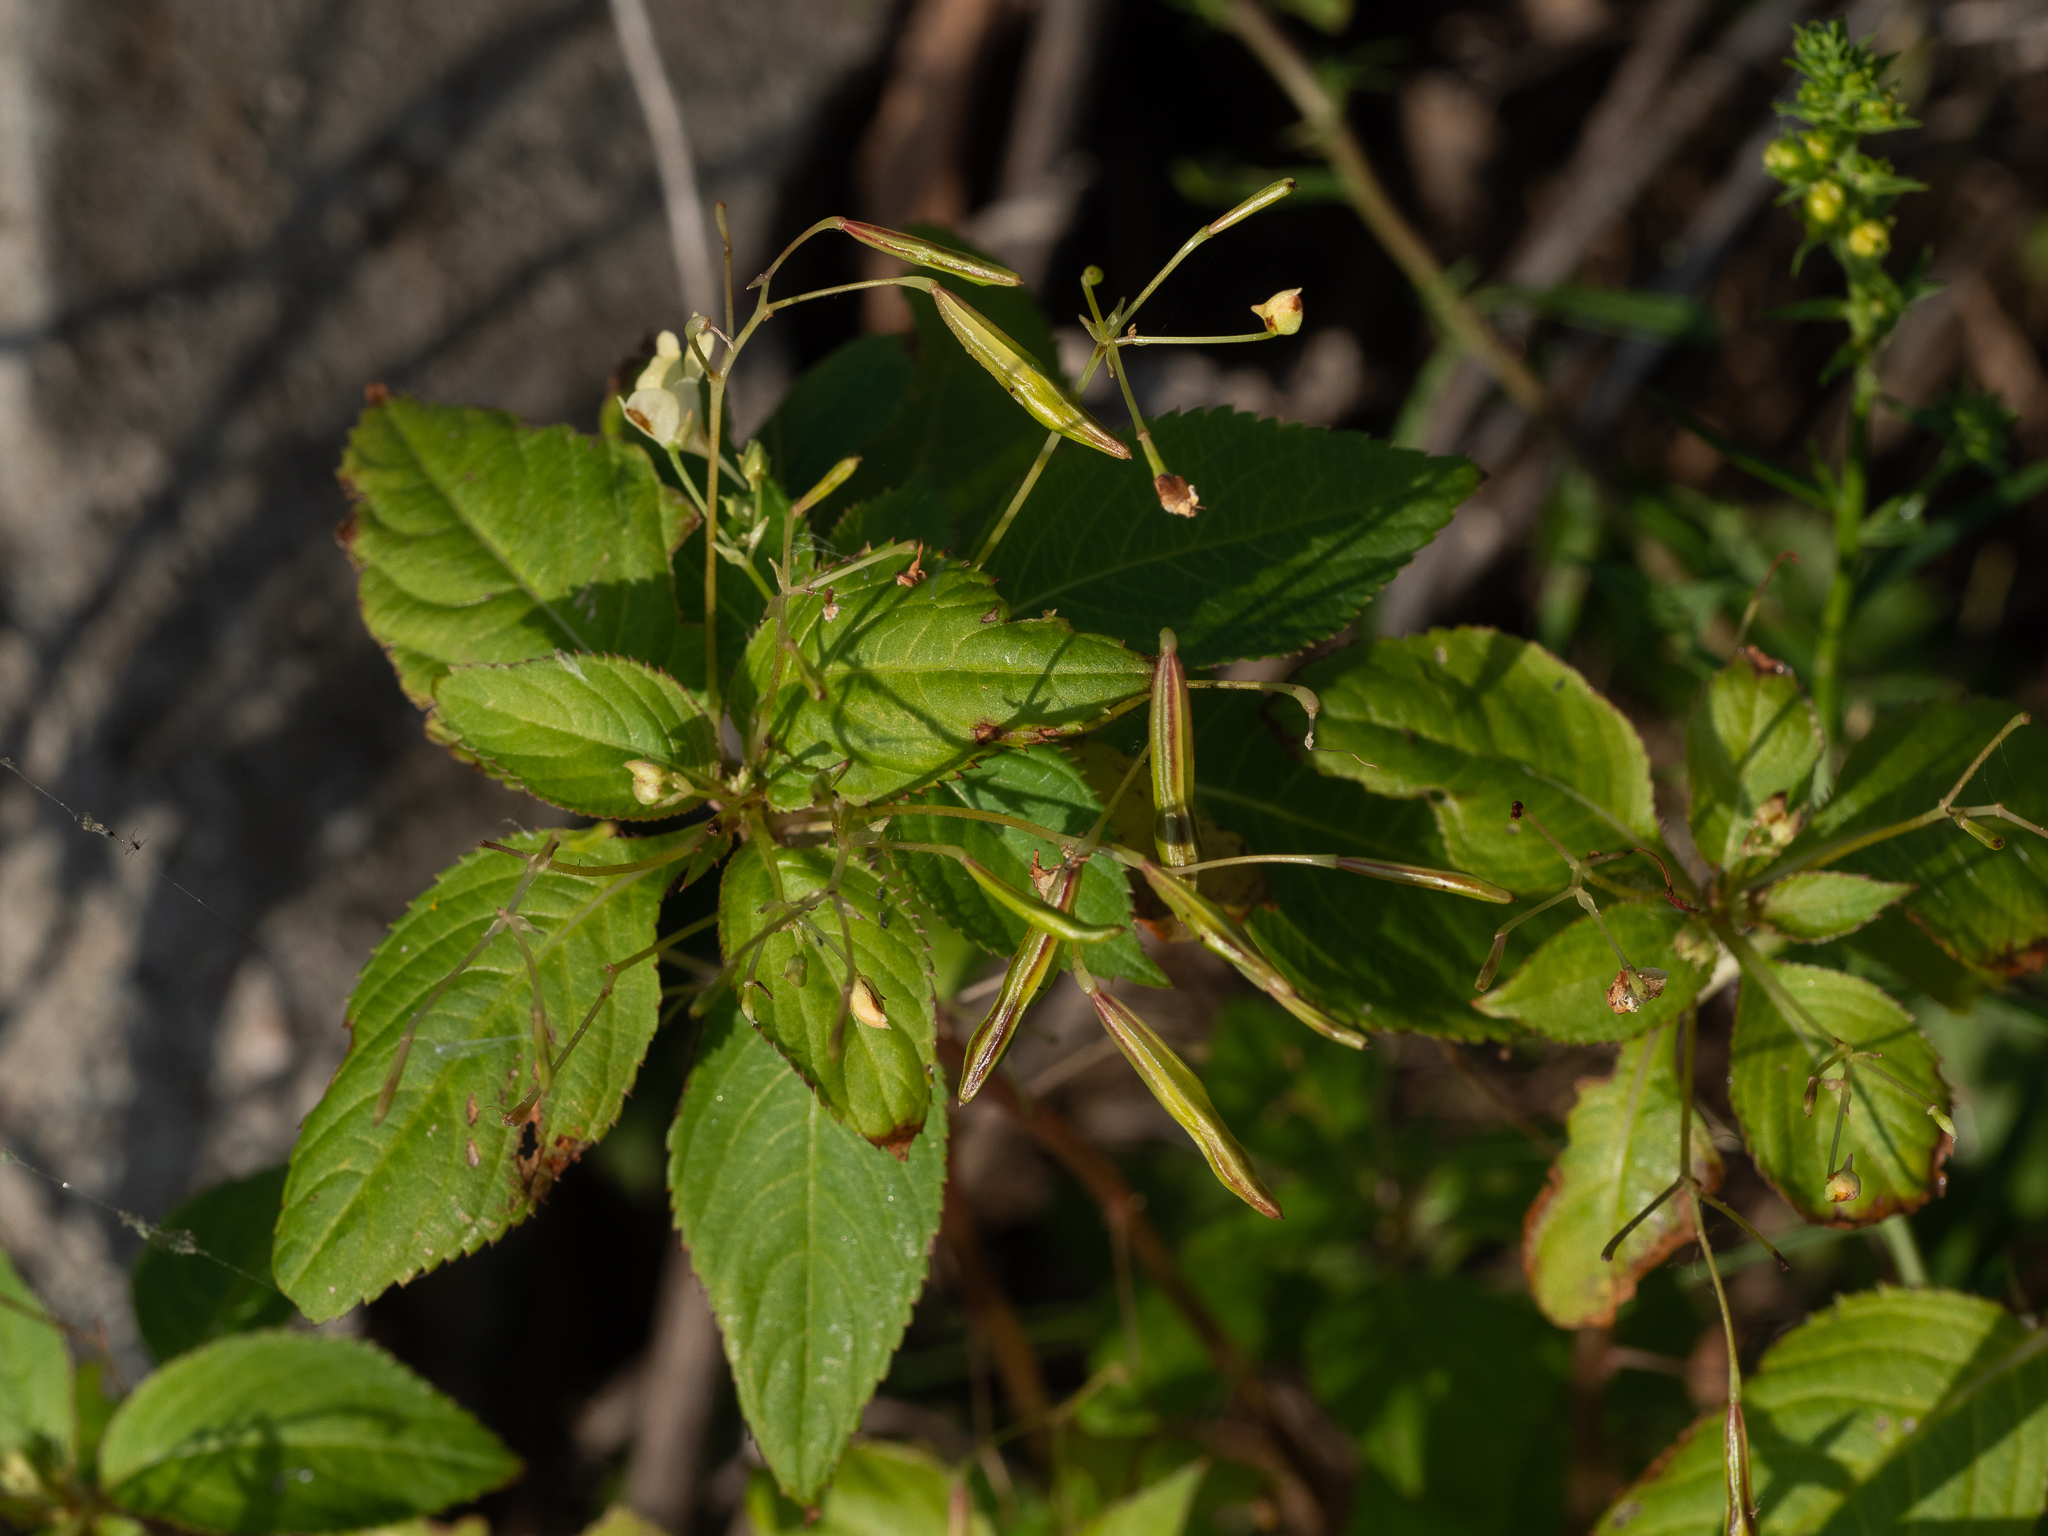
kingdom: Plantae
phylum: Tracheophyta
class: Magnoliopsida
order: Ericales
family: Balsaminaceae
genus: Impatiens
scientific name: Impatiens parviflora
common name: Small balsam
